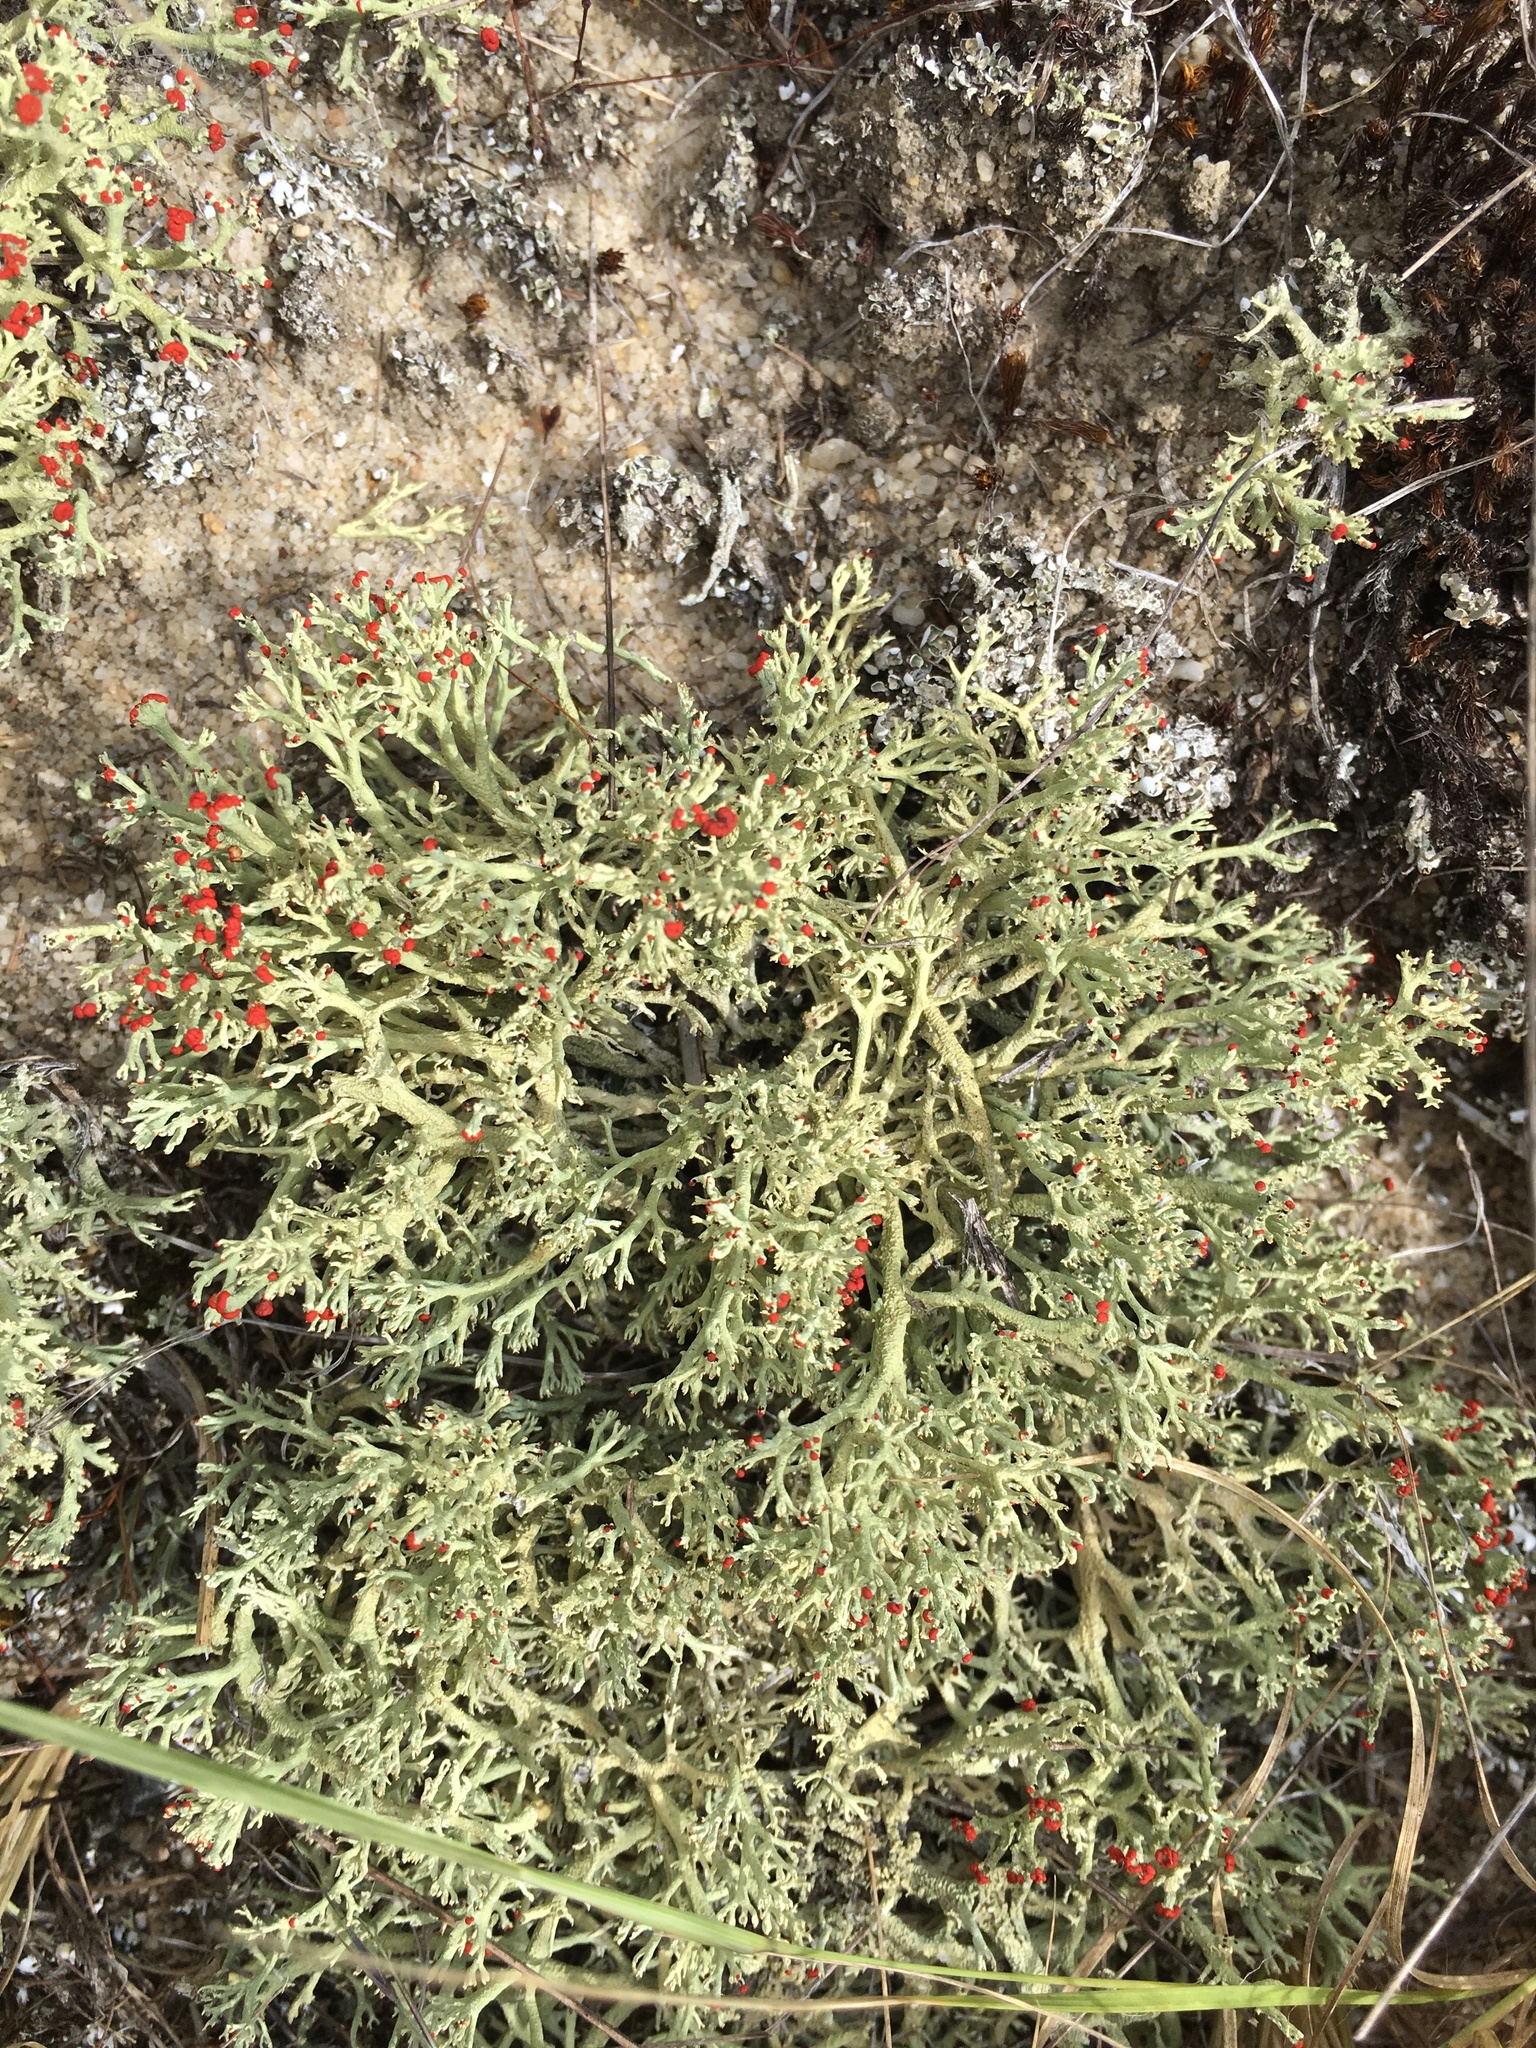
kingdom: Fungi
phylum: Ascomycota
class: Lecanoromycetes
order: Lecanorales
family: Cladoniaceae
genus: Cladonia
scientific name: Cladonia leporina
